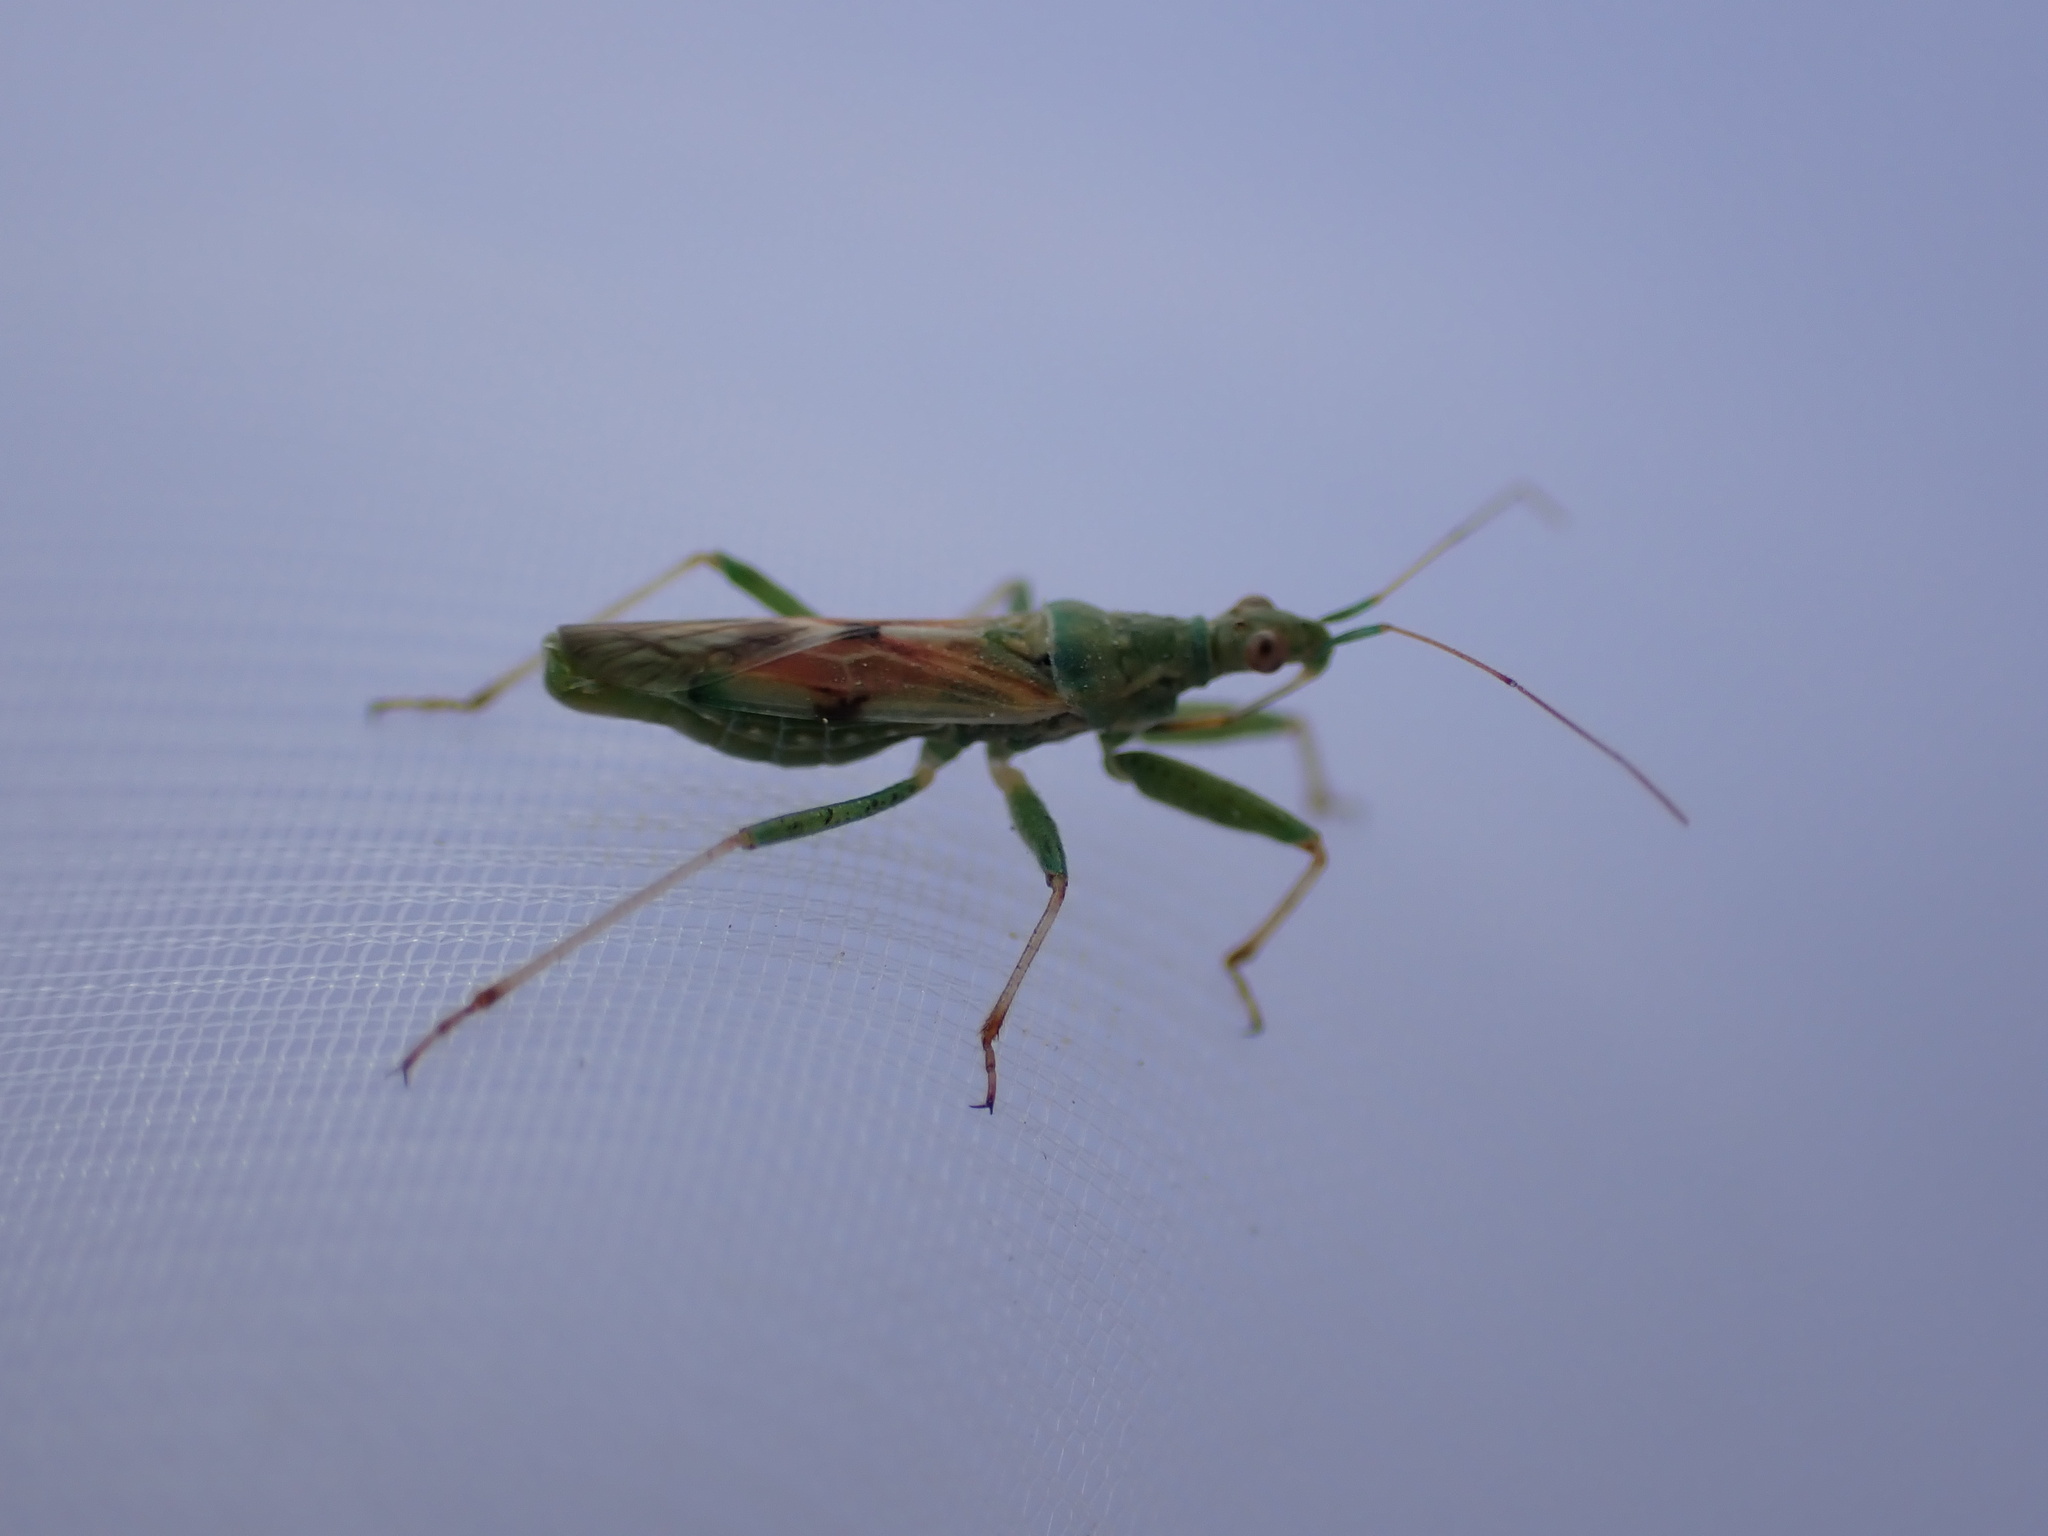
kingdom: Animalia
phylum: Arthropoda
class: Insecta
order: Hemiptera
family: Nabidae
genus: Nabis
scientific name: Nabis viridulus
